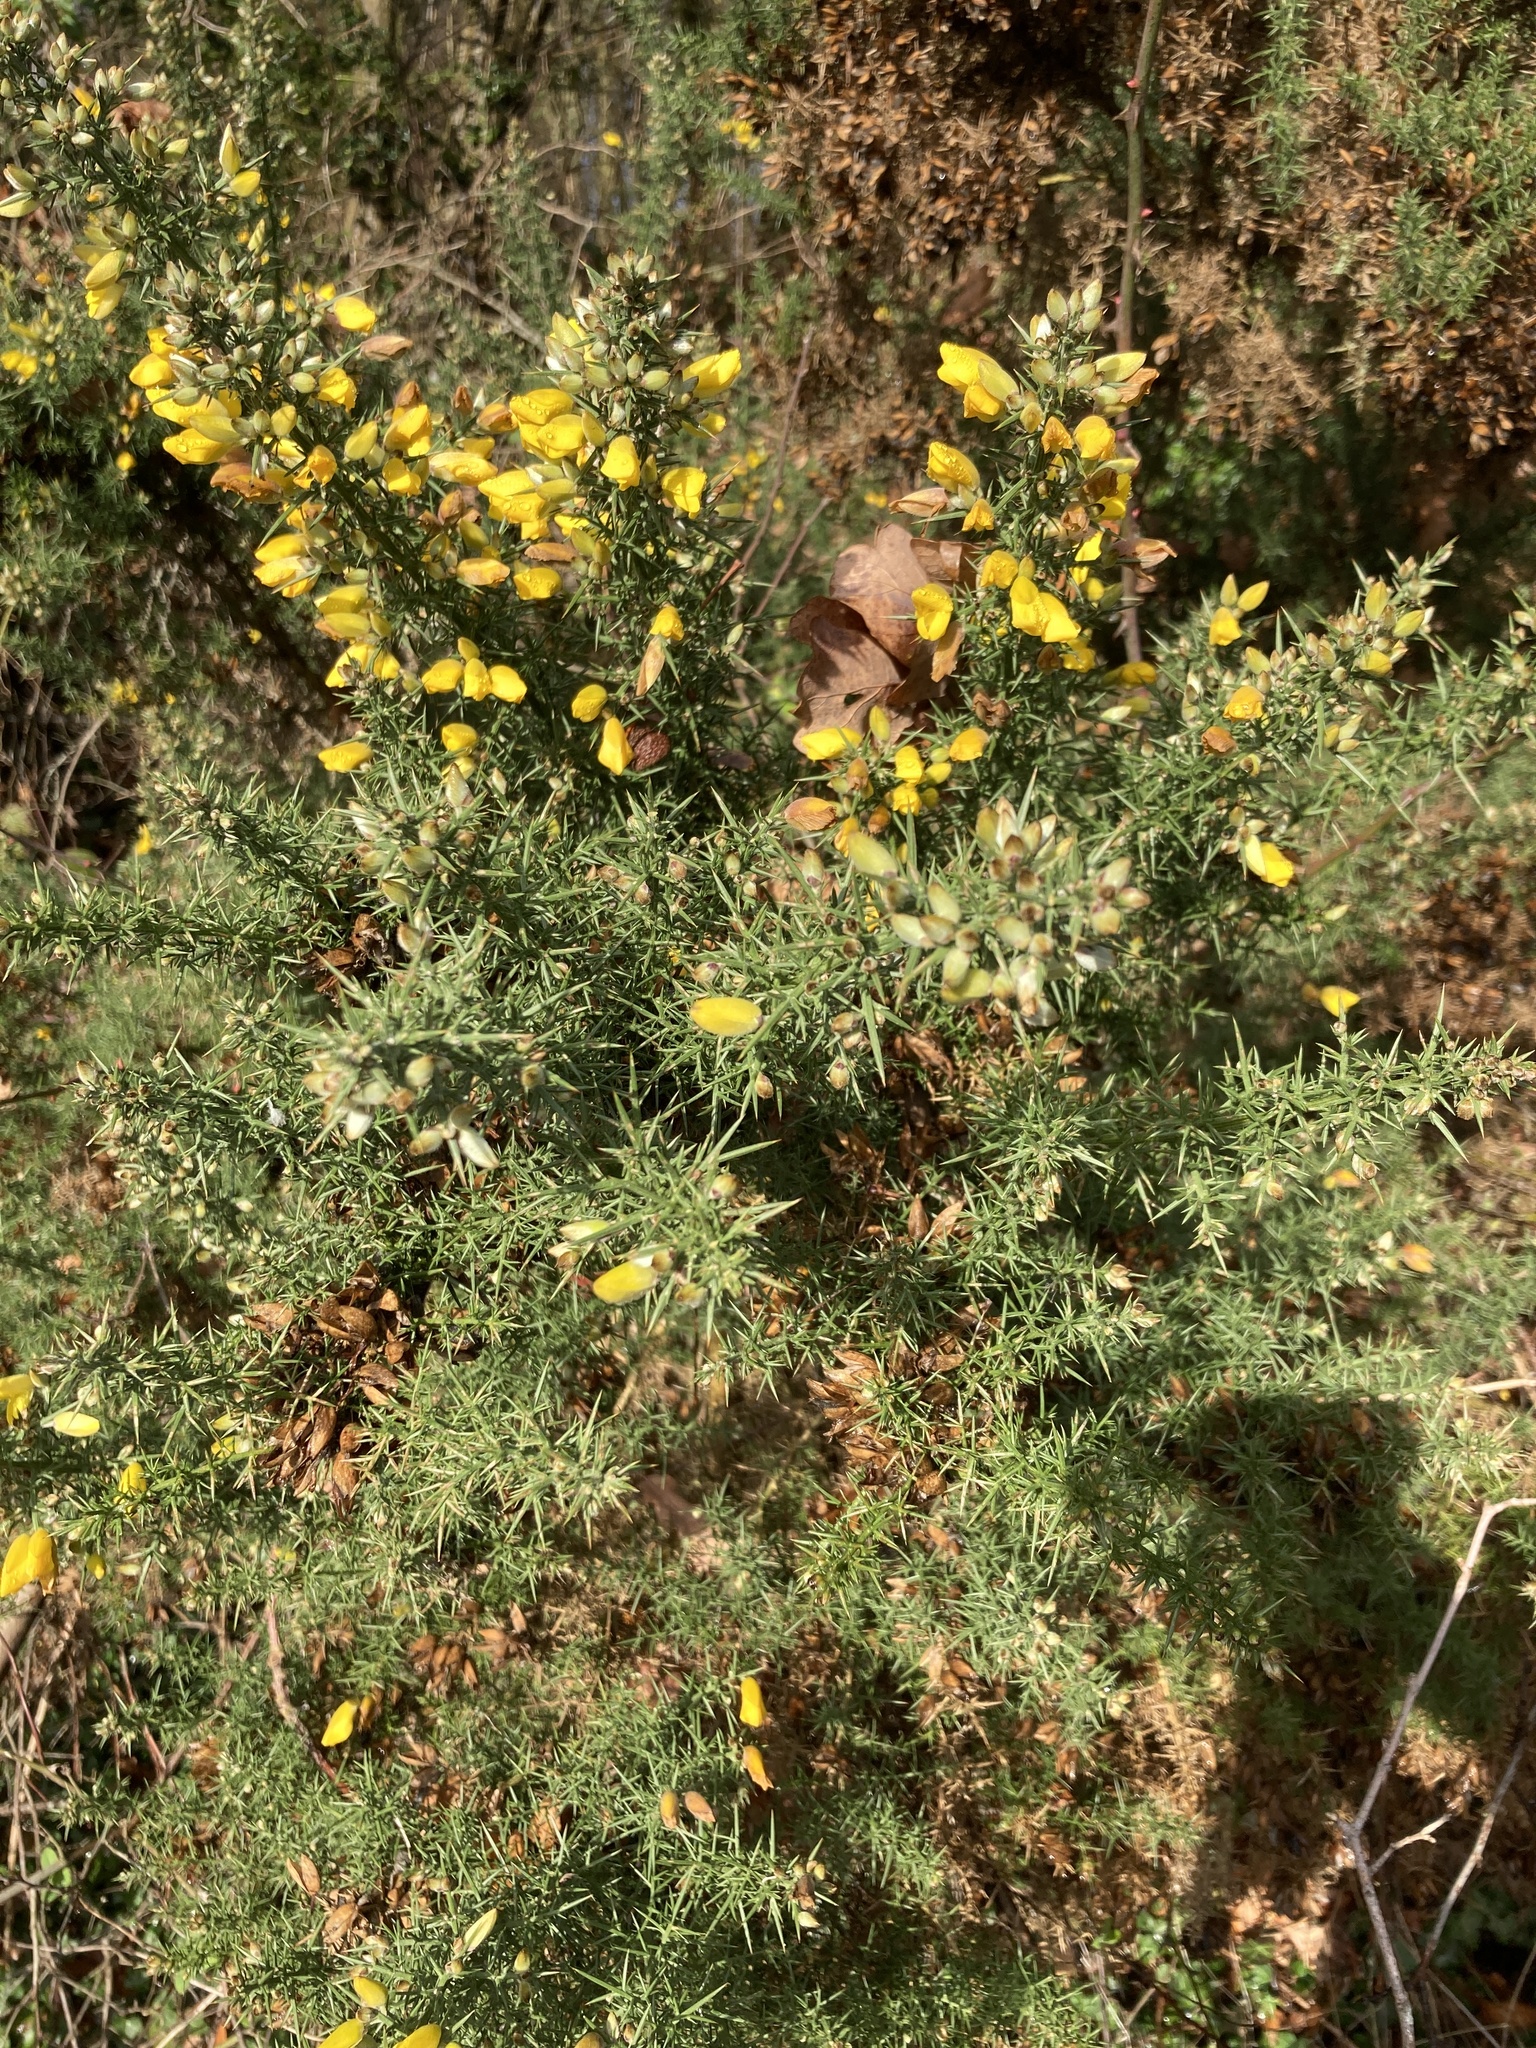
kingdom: Plantae
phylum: Tracheophyta
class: Magnoliopsida
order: Fabales
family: Fabaceae
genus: Ulex
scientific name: Ulex europaeus
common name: Common gorse
